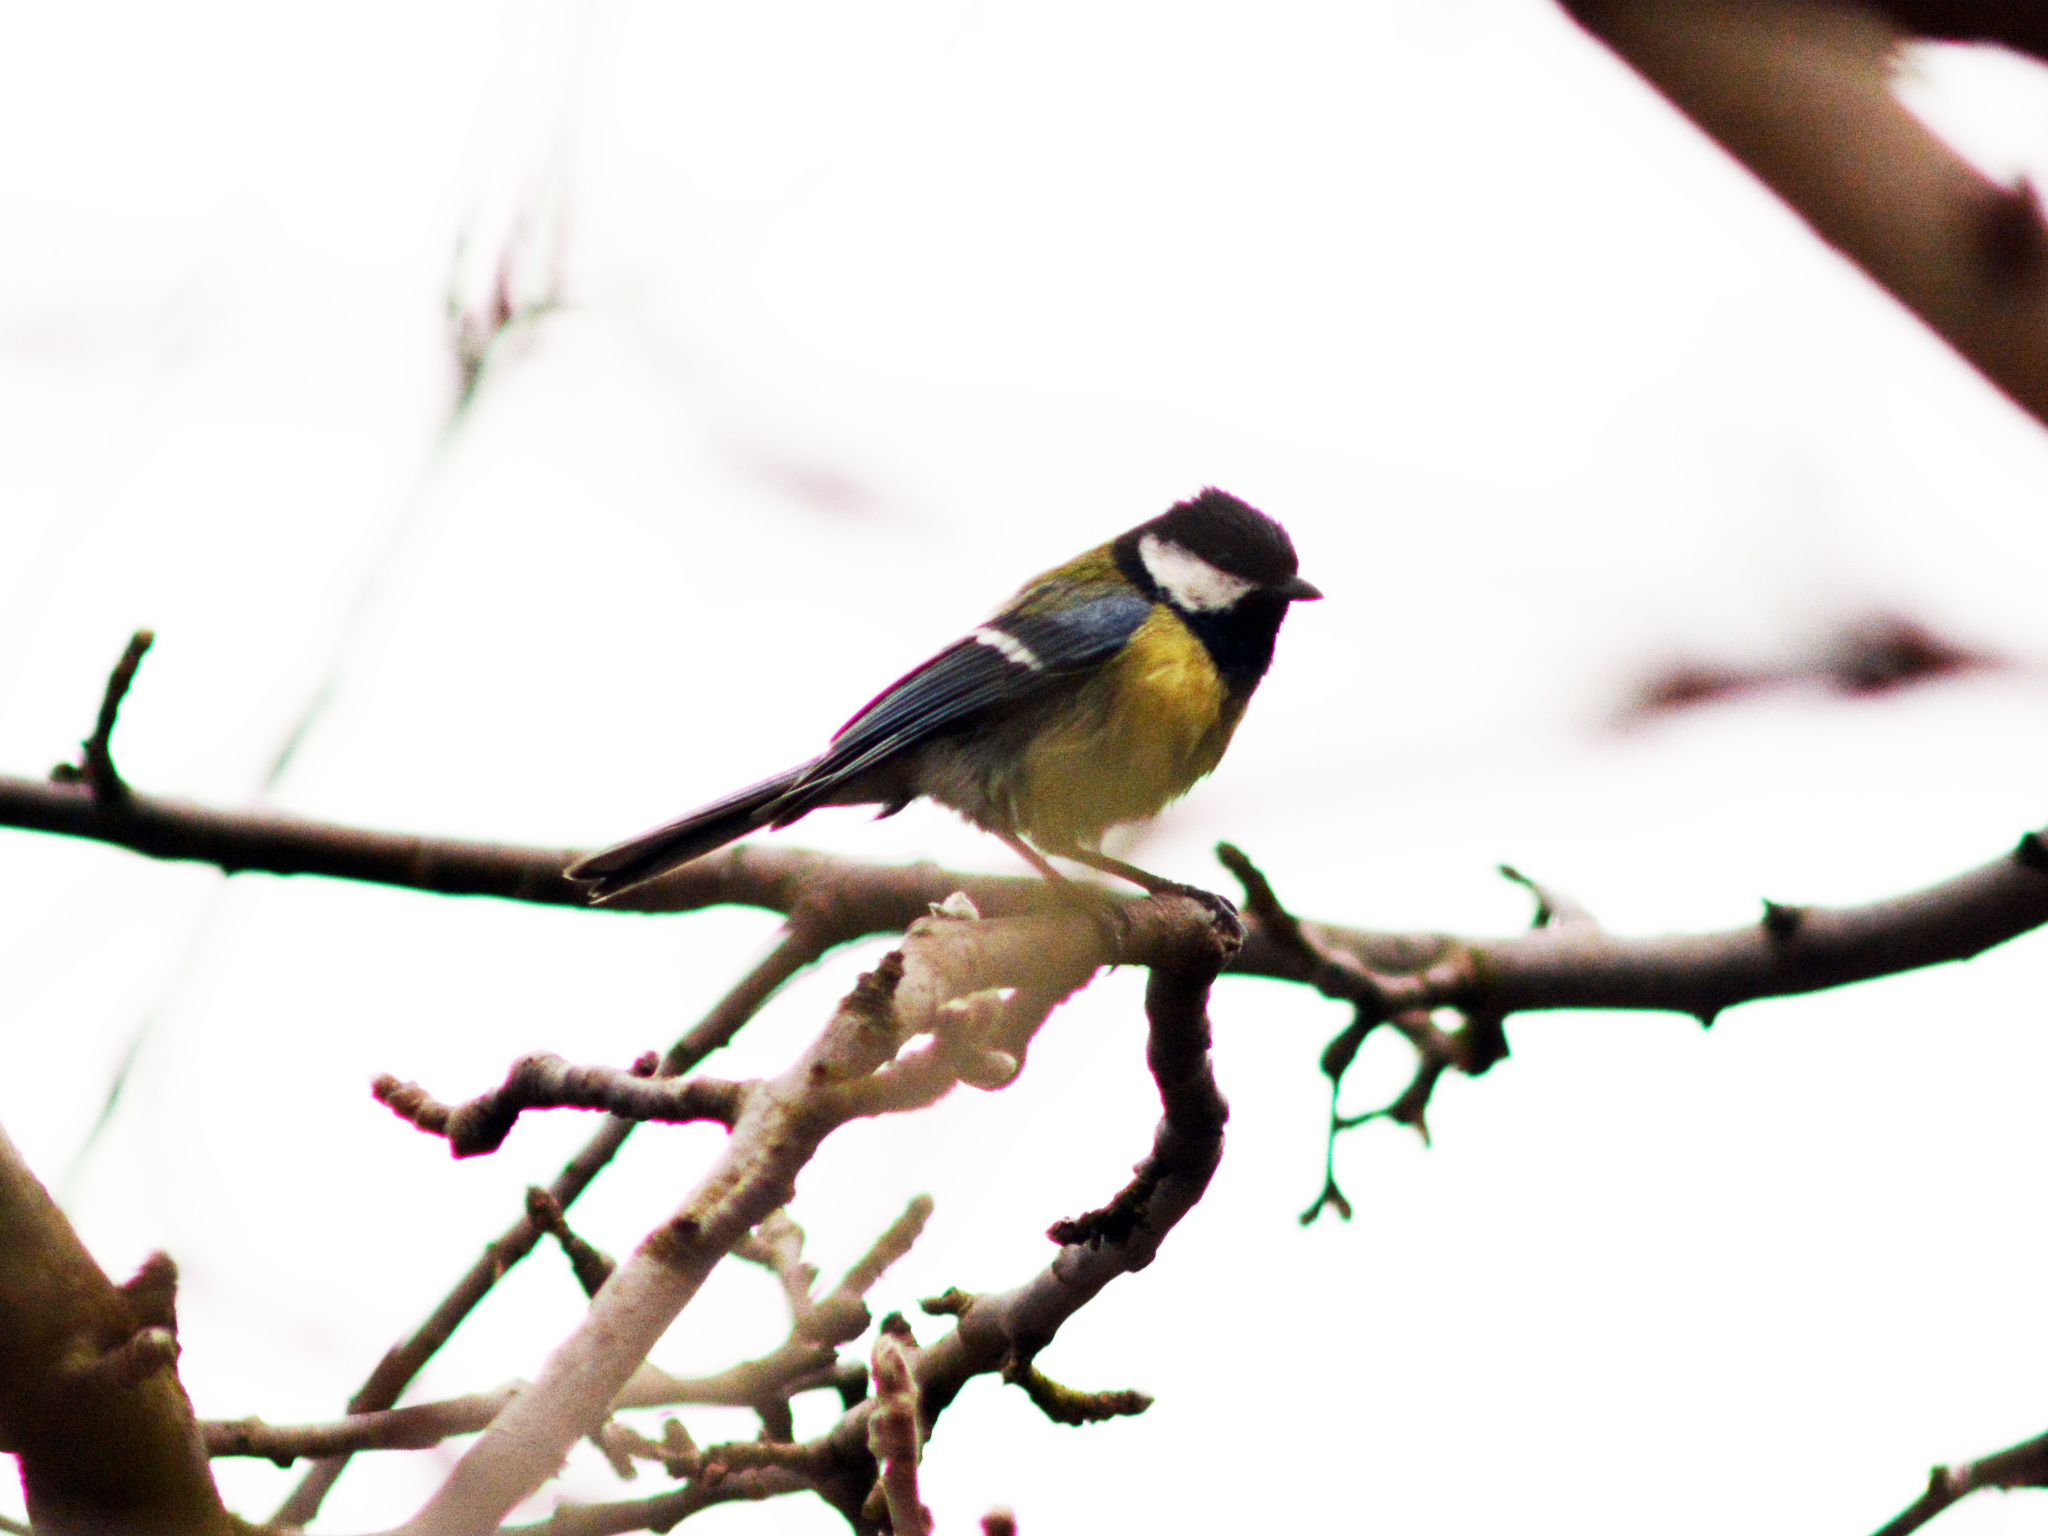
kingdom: Animalia
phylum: Chordata
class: Aves
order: Passeriformes
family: Paridae
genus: Parus
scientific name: Parus major
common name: Great tit
